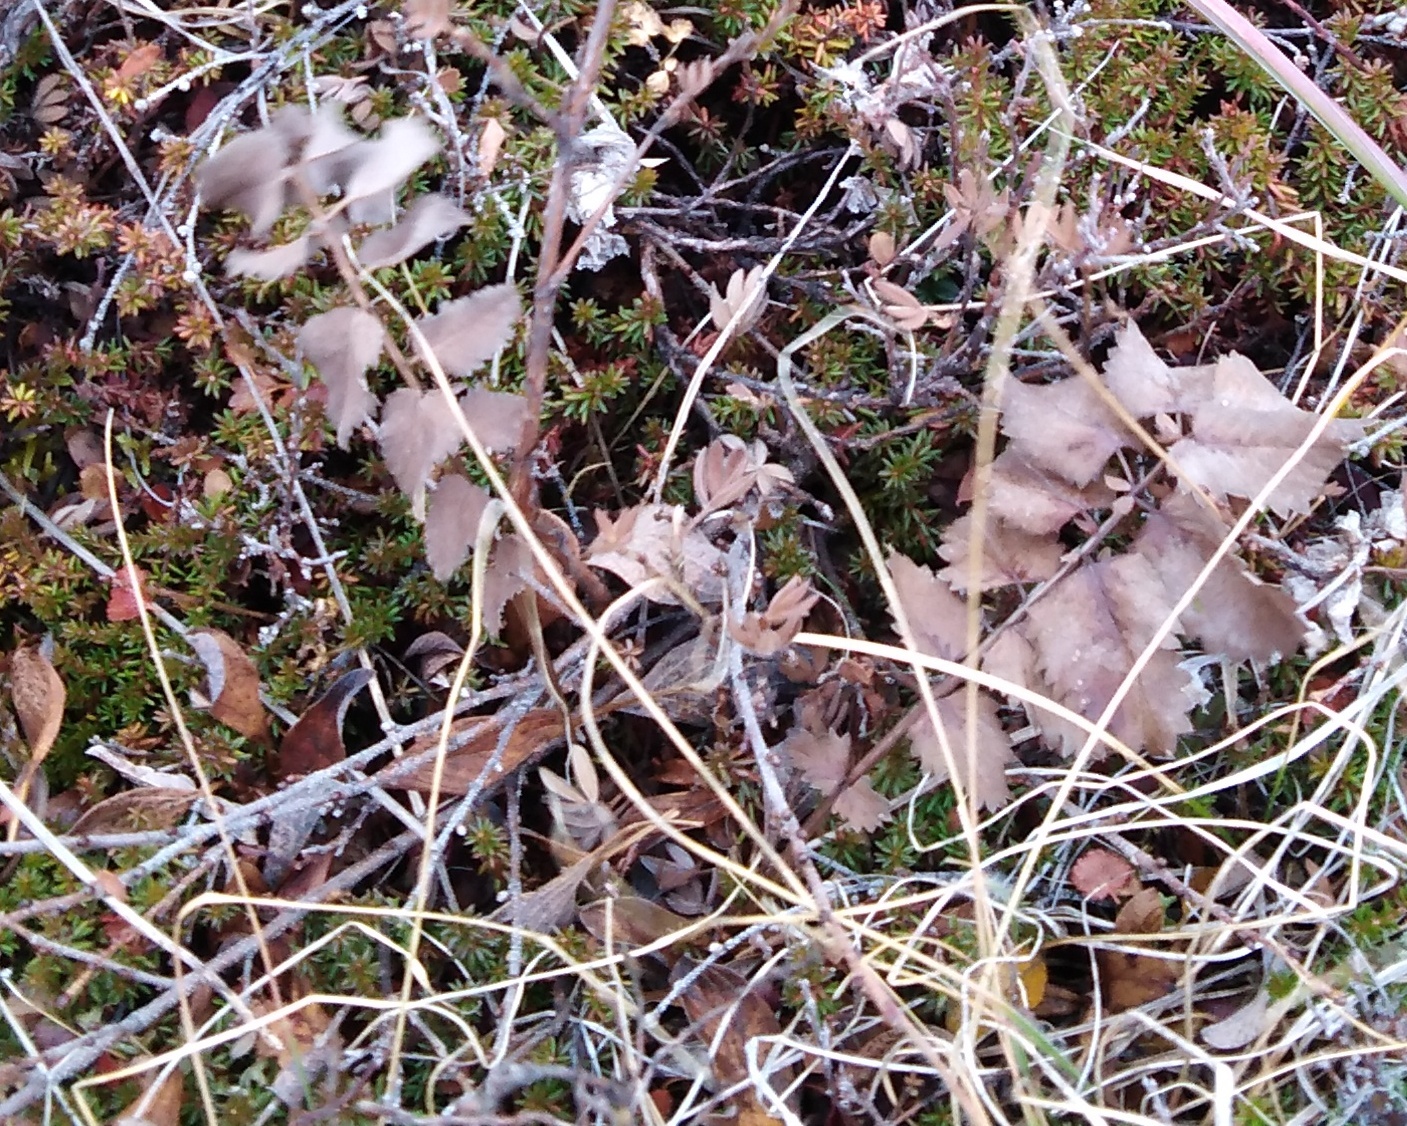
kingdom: Plantae
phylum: Tracheophyta
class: Magnoliopsida
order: Rosales
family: Rosaceae
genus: Sanguisorba
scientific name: Sanguisorba officinalis
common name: Great burnet
